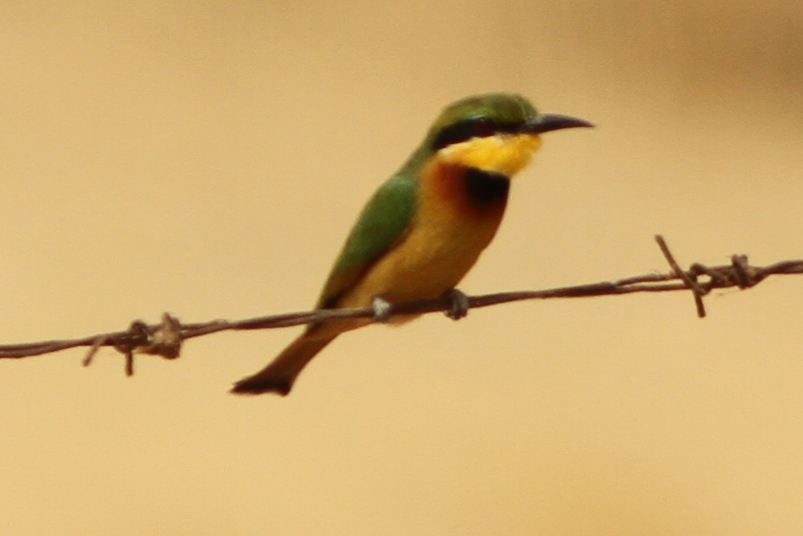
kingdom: Animalia
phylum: Chordata
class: Aves
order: Coraciiformes
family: Meropidae
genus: Merops
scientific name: Merops pusillus
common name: Little bee-eater
